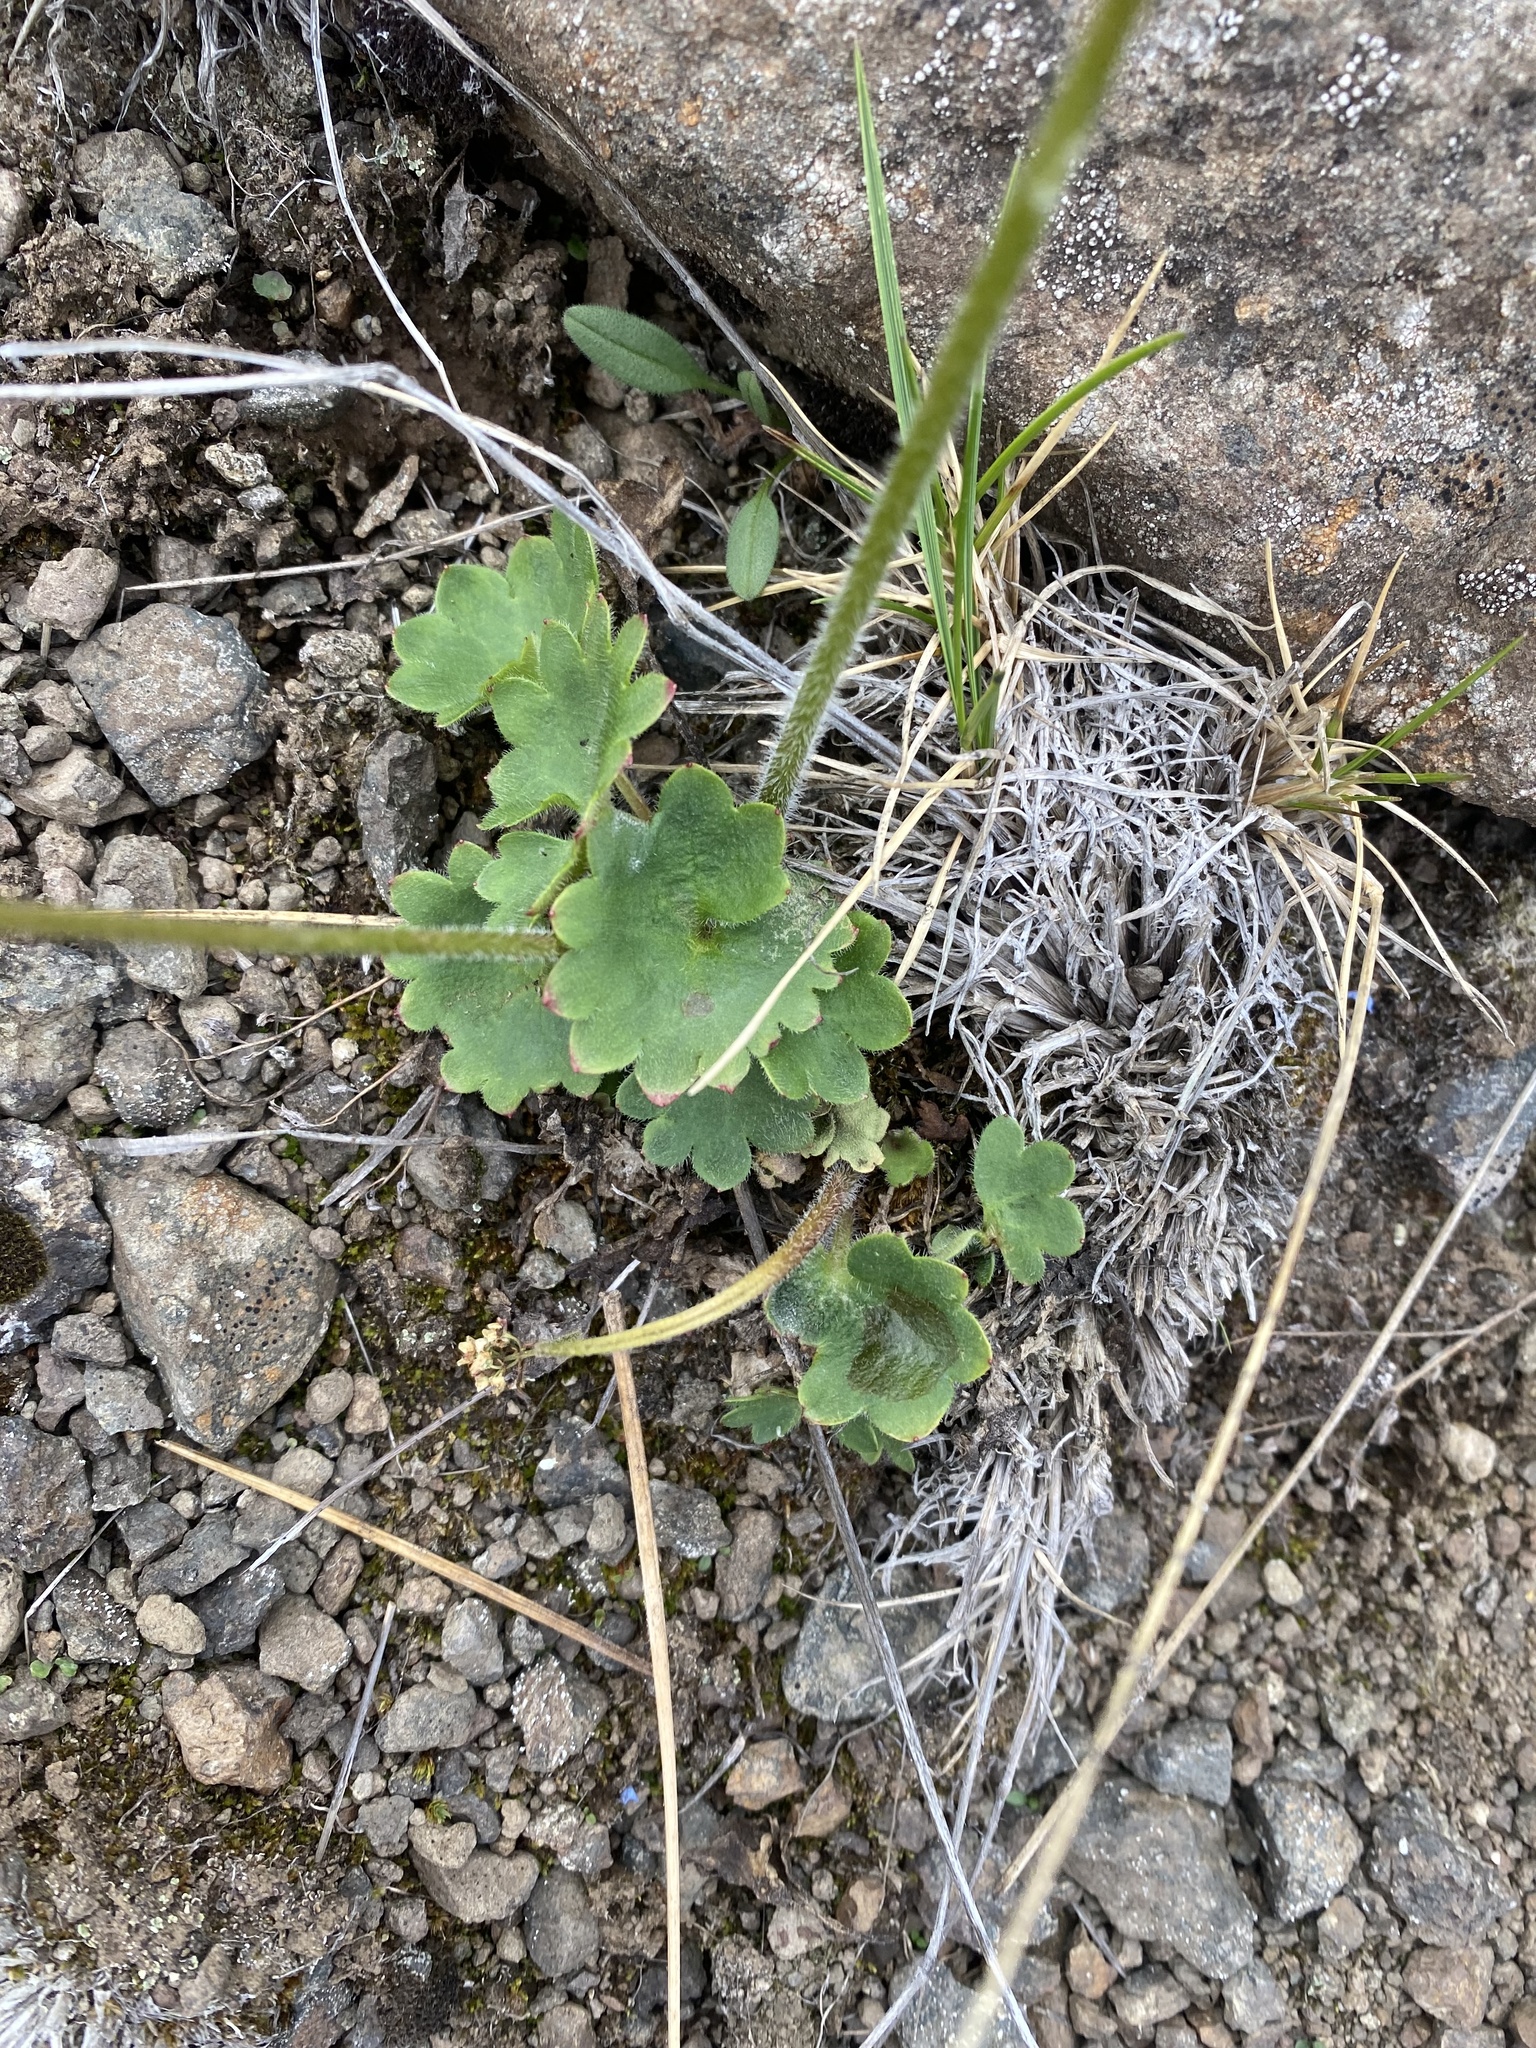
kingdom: Plantae
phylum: Tracheophyta
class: Magnoliopsida
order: Saxifragales
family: Saxifragaceae
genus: Micranthes
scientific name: Micranthes nelsoniana
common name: Nelson's saxifrage
